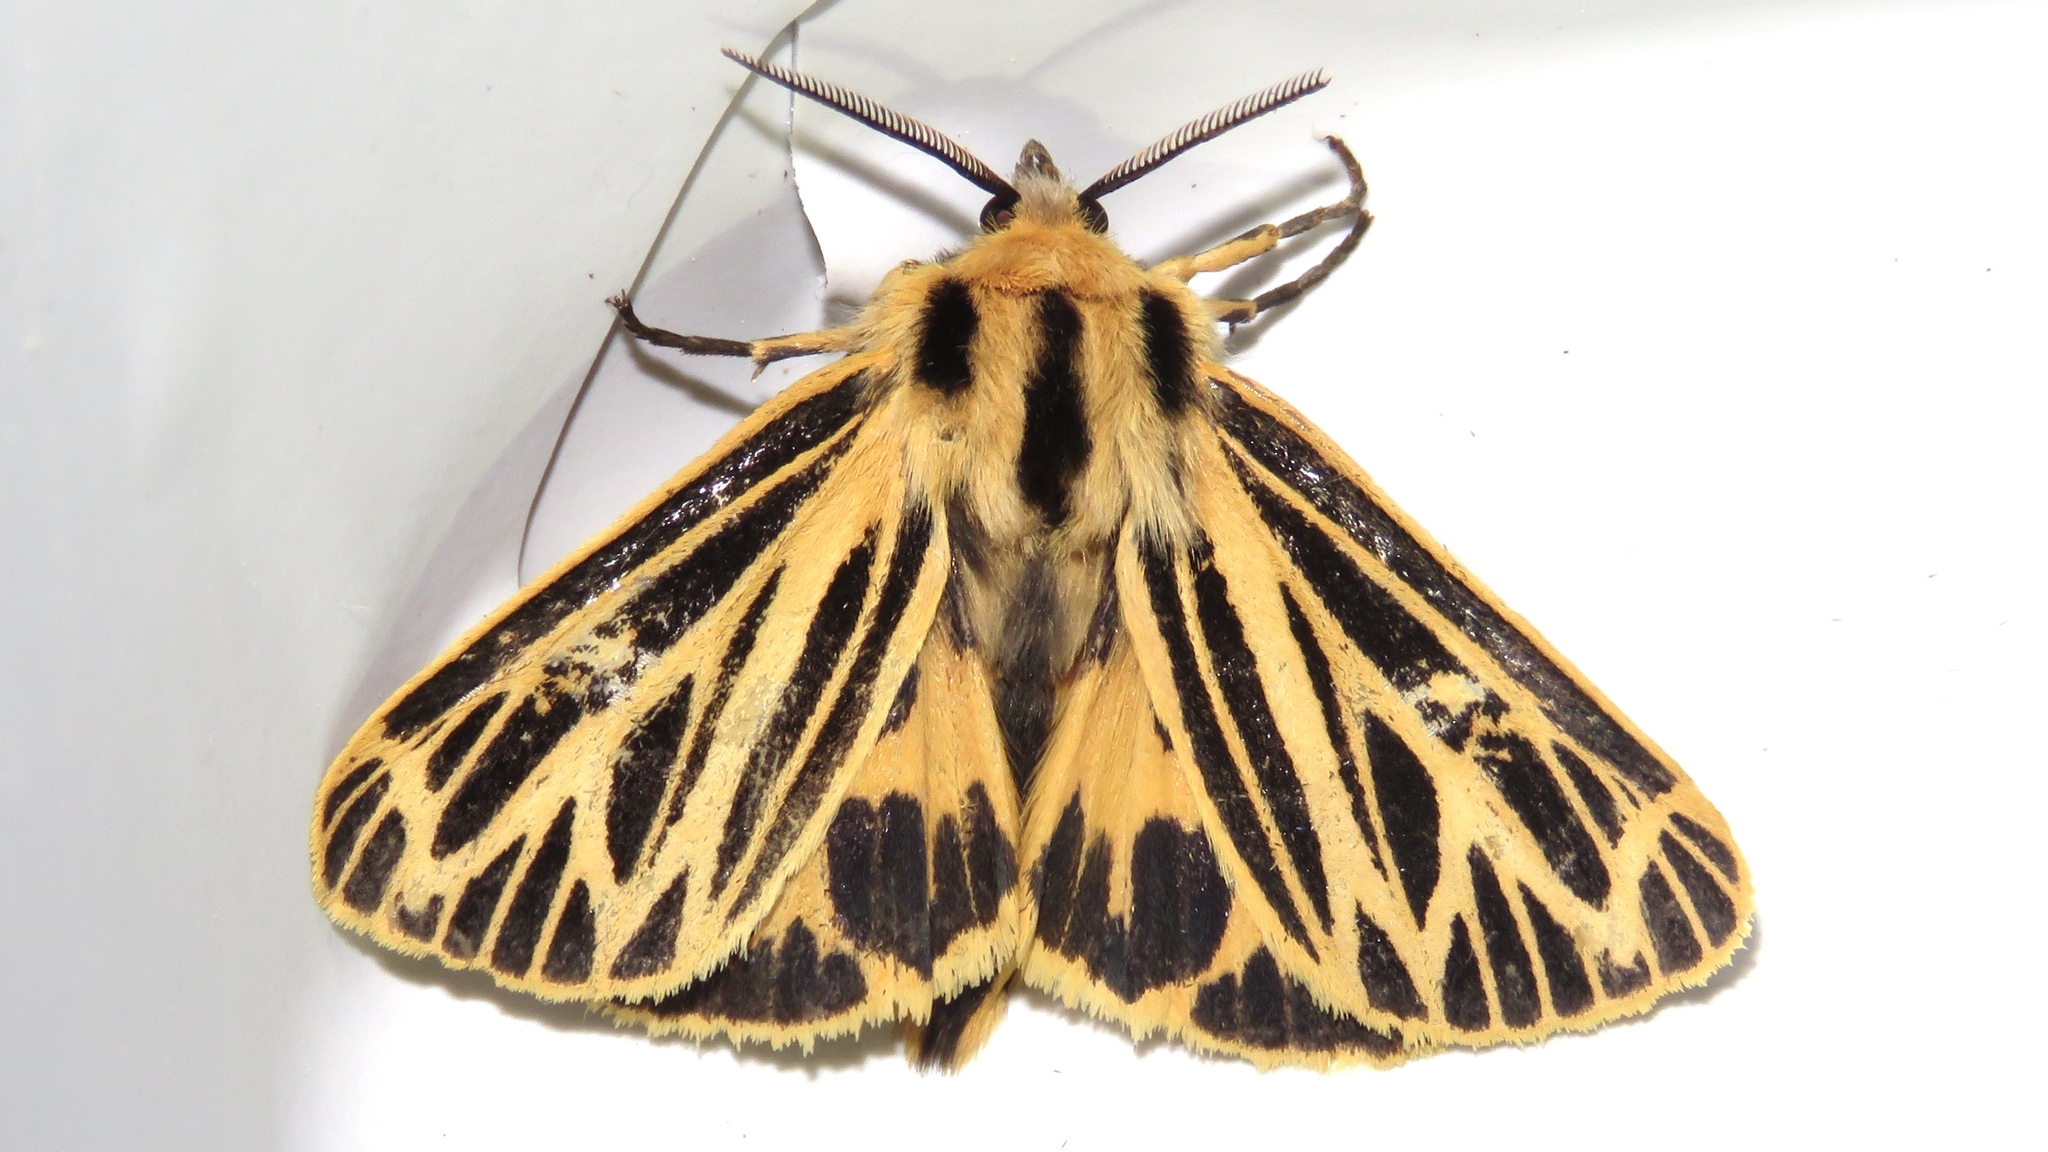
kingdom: Animalia
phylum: Arthropoda
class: Insecta
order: Lepidoptera
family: Erebidae
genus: Grammia
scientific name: Grammia virguncula
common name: Little tiger moth
